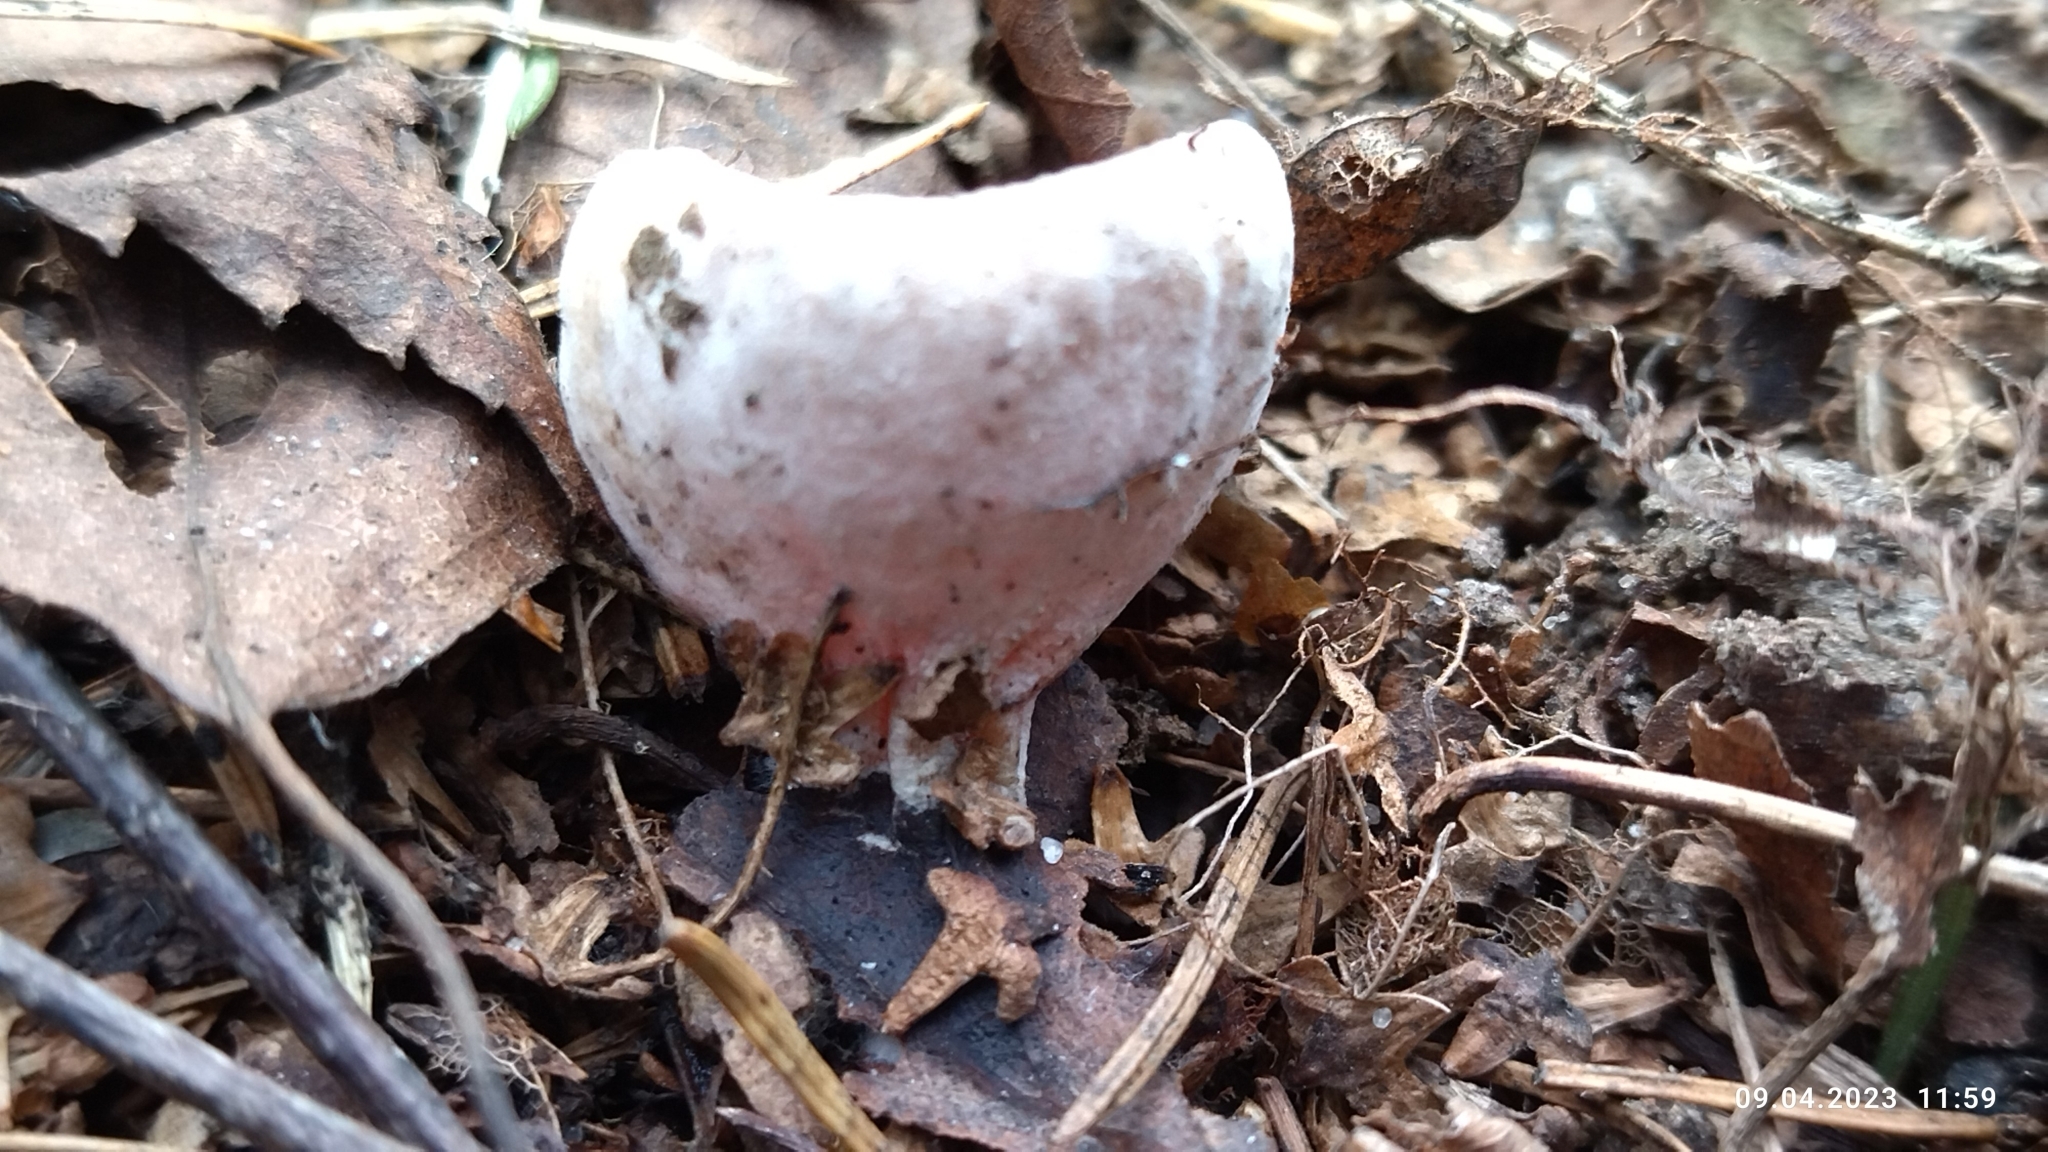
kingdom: Fungi
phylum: Ascomycota
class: Pezizomycetes
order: Pezizales
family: Sarcoscyphaceae
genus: Sarcoscypha
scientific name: Sarcoscypha austriaca
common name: Scarlet elfcup
